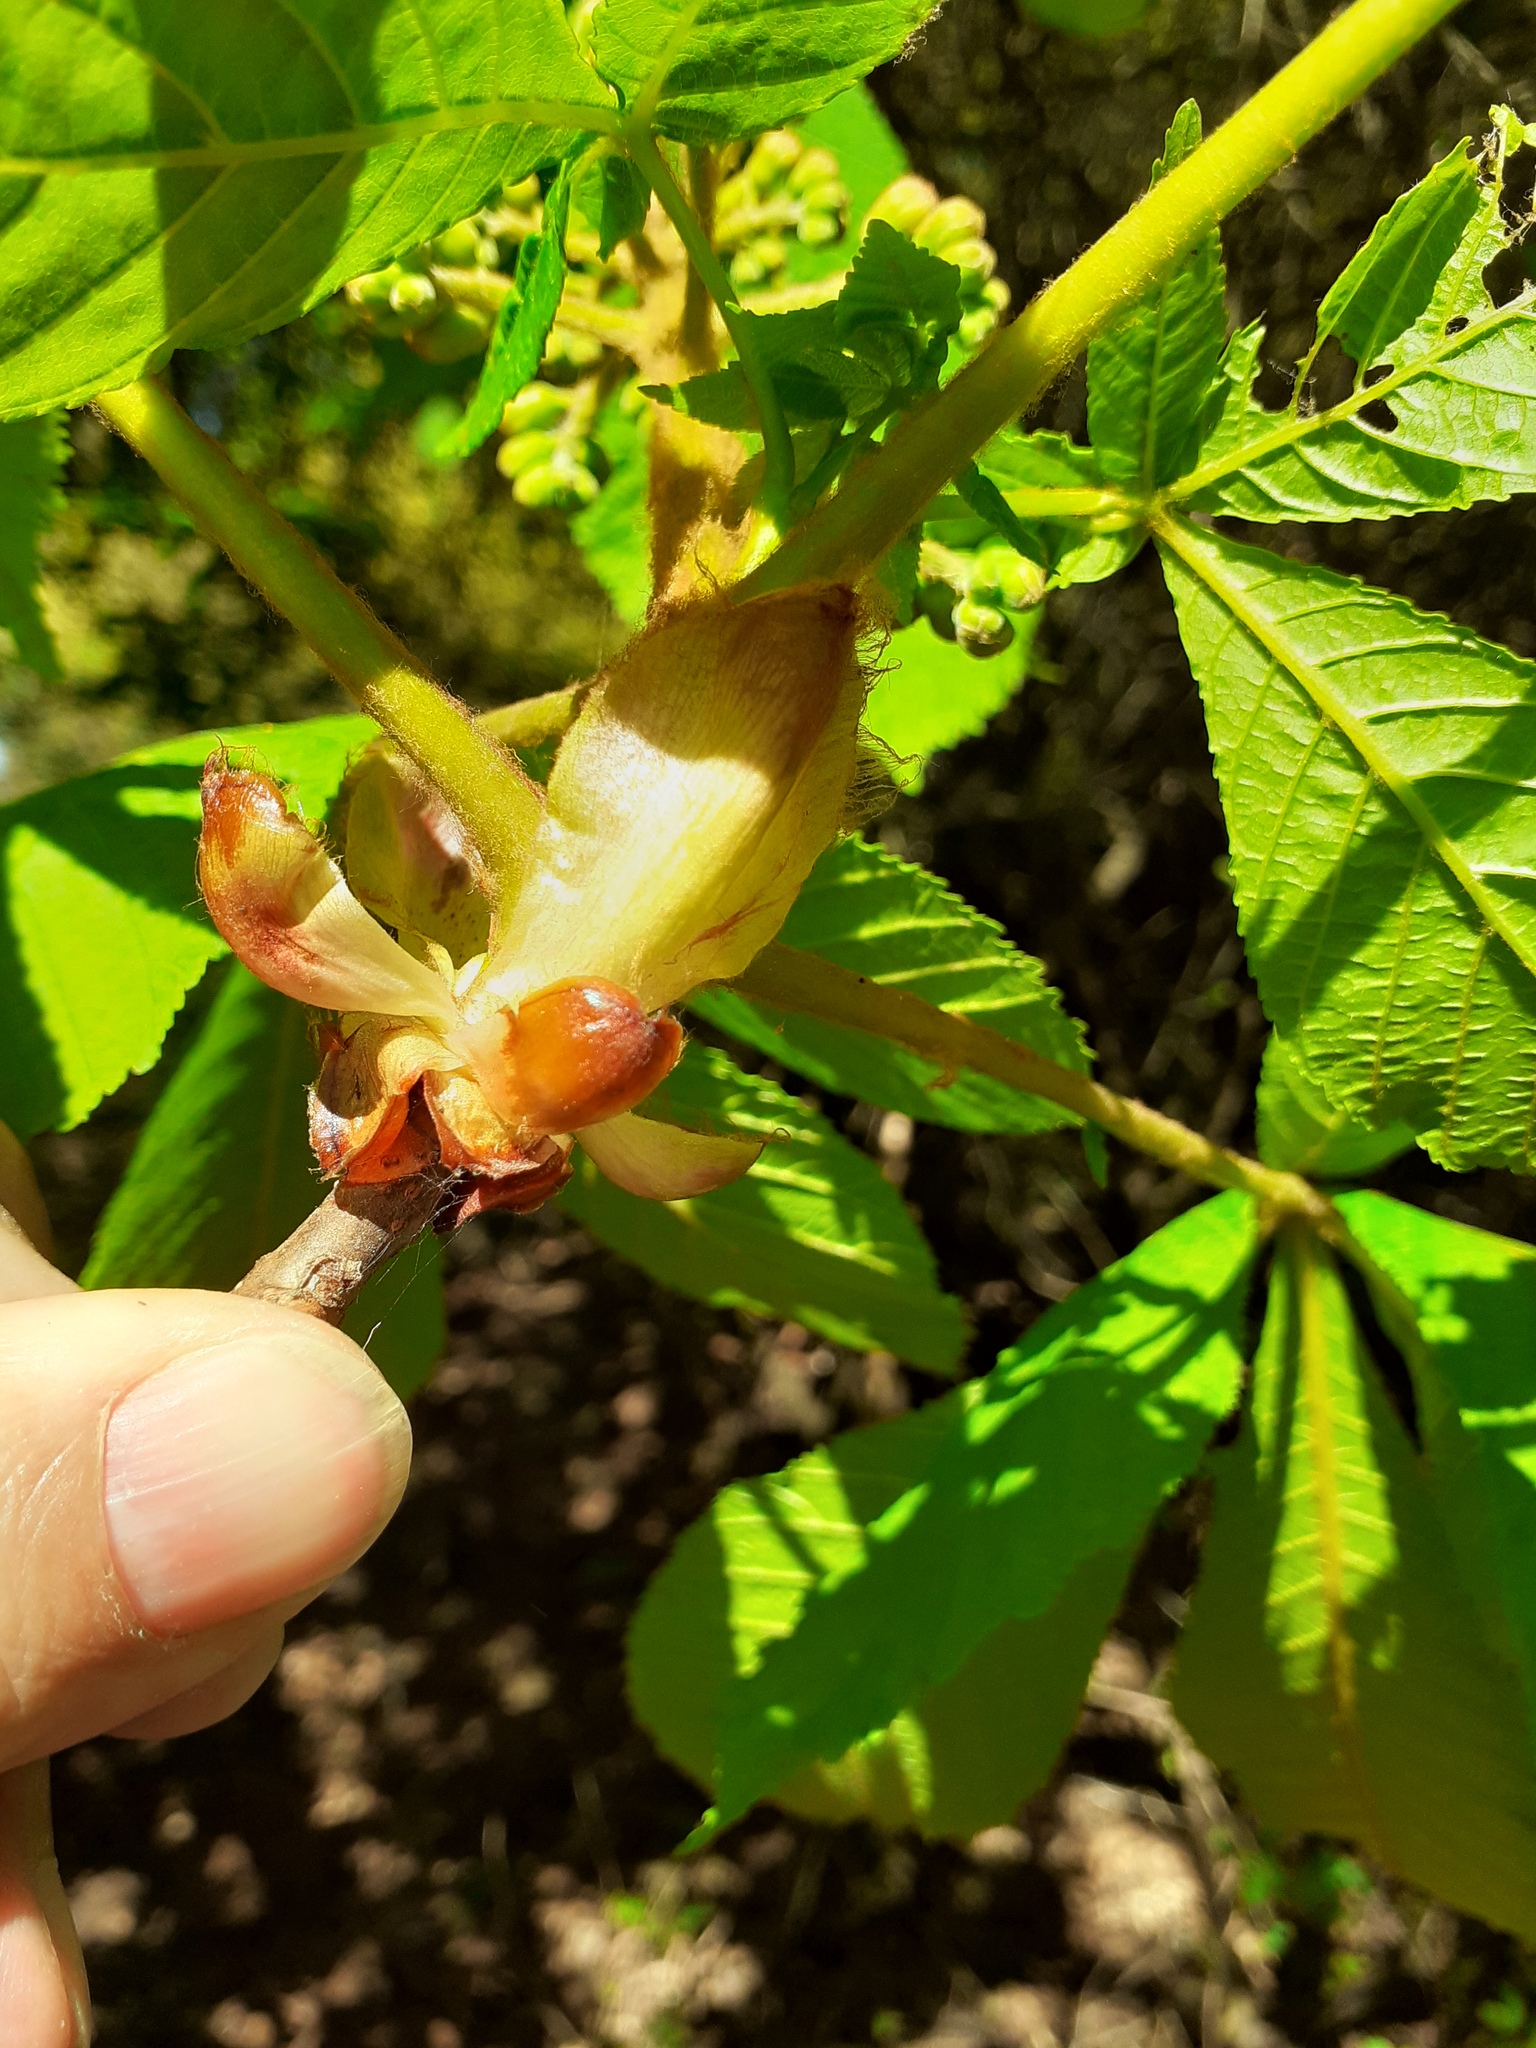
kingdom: Plantae
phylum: Tracheophyta
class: Magnoliopsida
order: Sapindales
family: Sapindaceae
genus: Aesculus
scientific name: Aesculus hippocastanum
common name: Horse-chestnut
